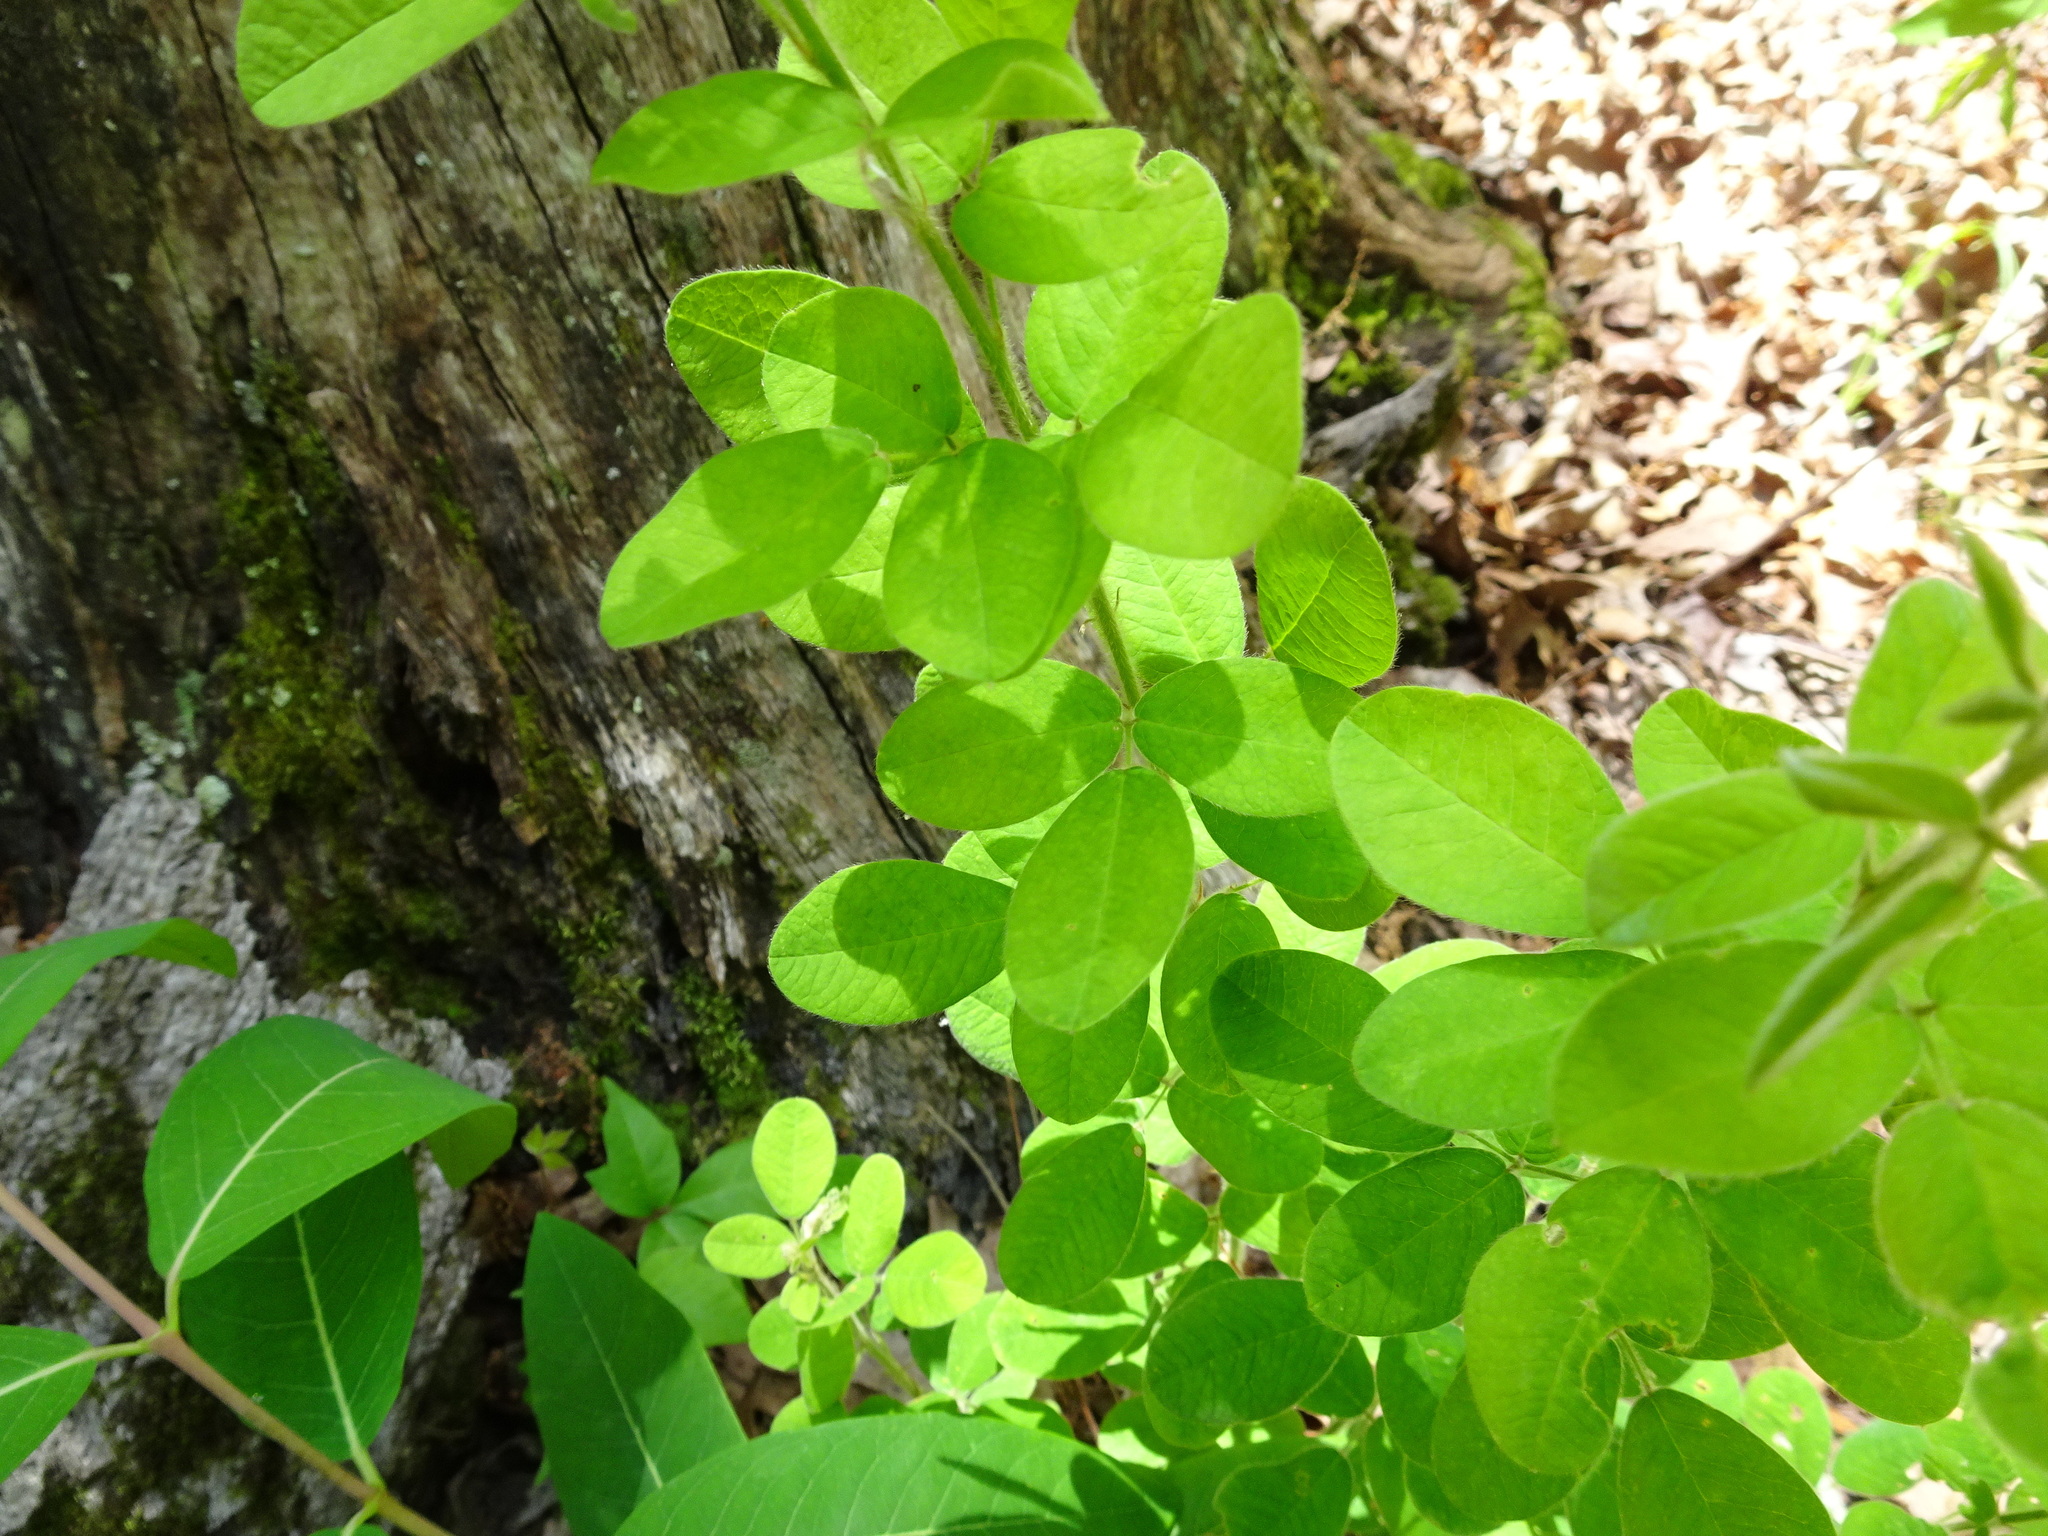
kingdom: Plantae
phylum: Tracheophyta
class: Magnoliopsida
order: Fabales
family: Fabaceae
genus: Lespedeza
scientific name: Lespedeza hirta
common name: Hairy lespedeza
